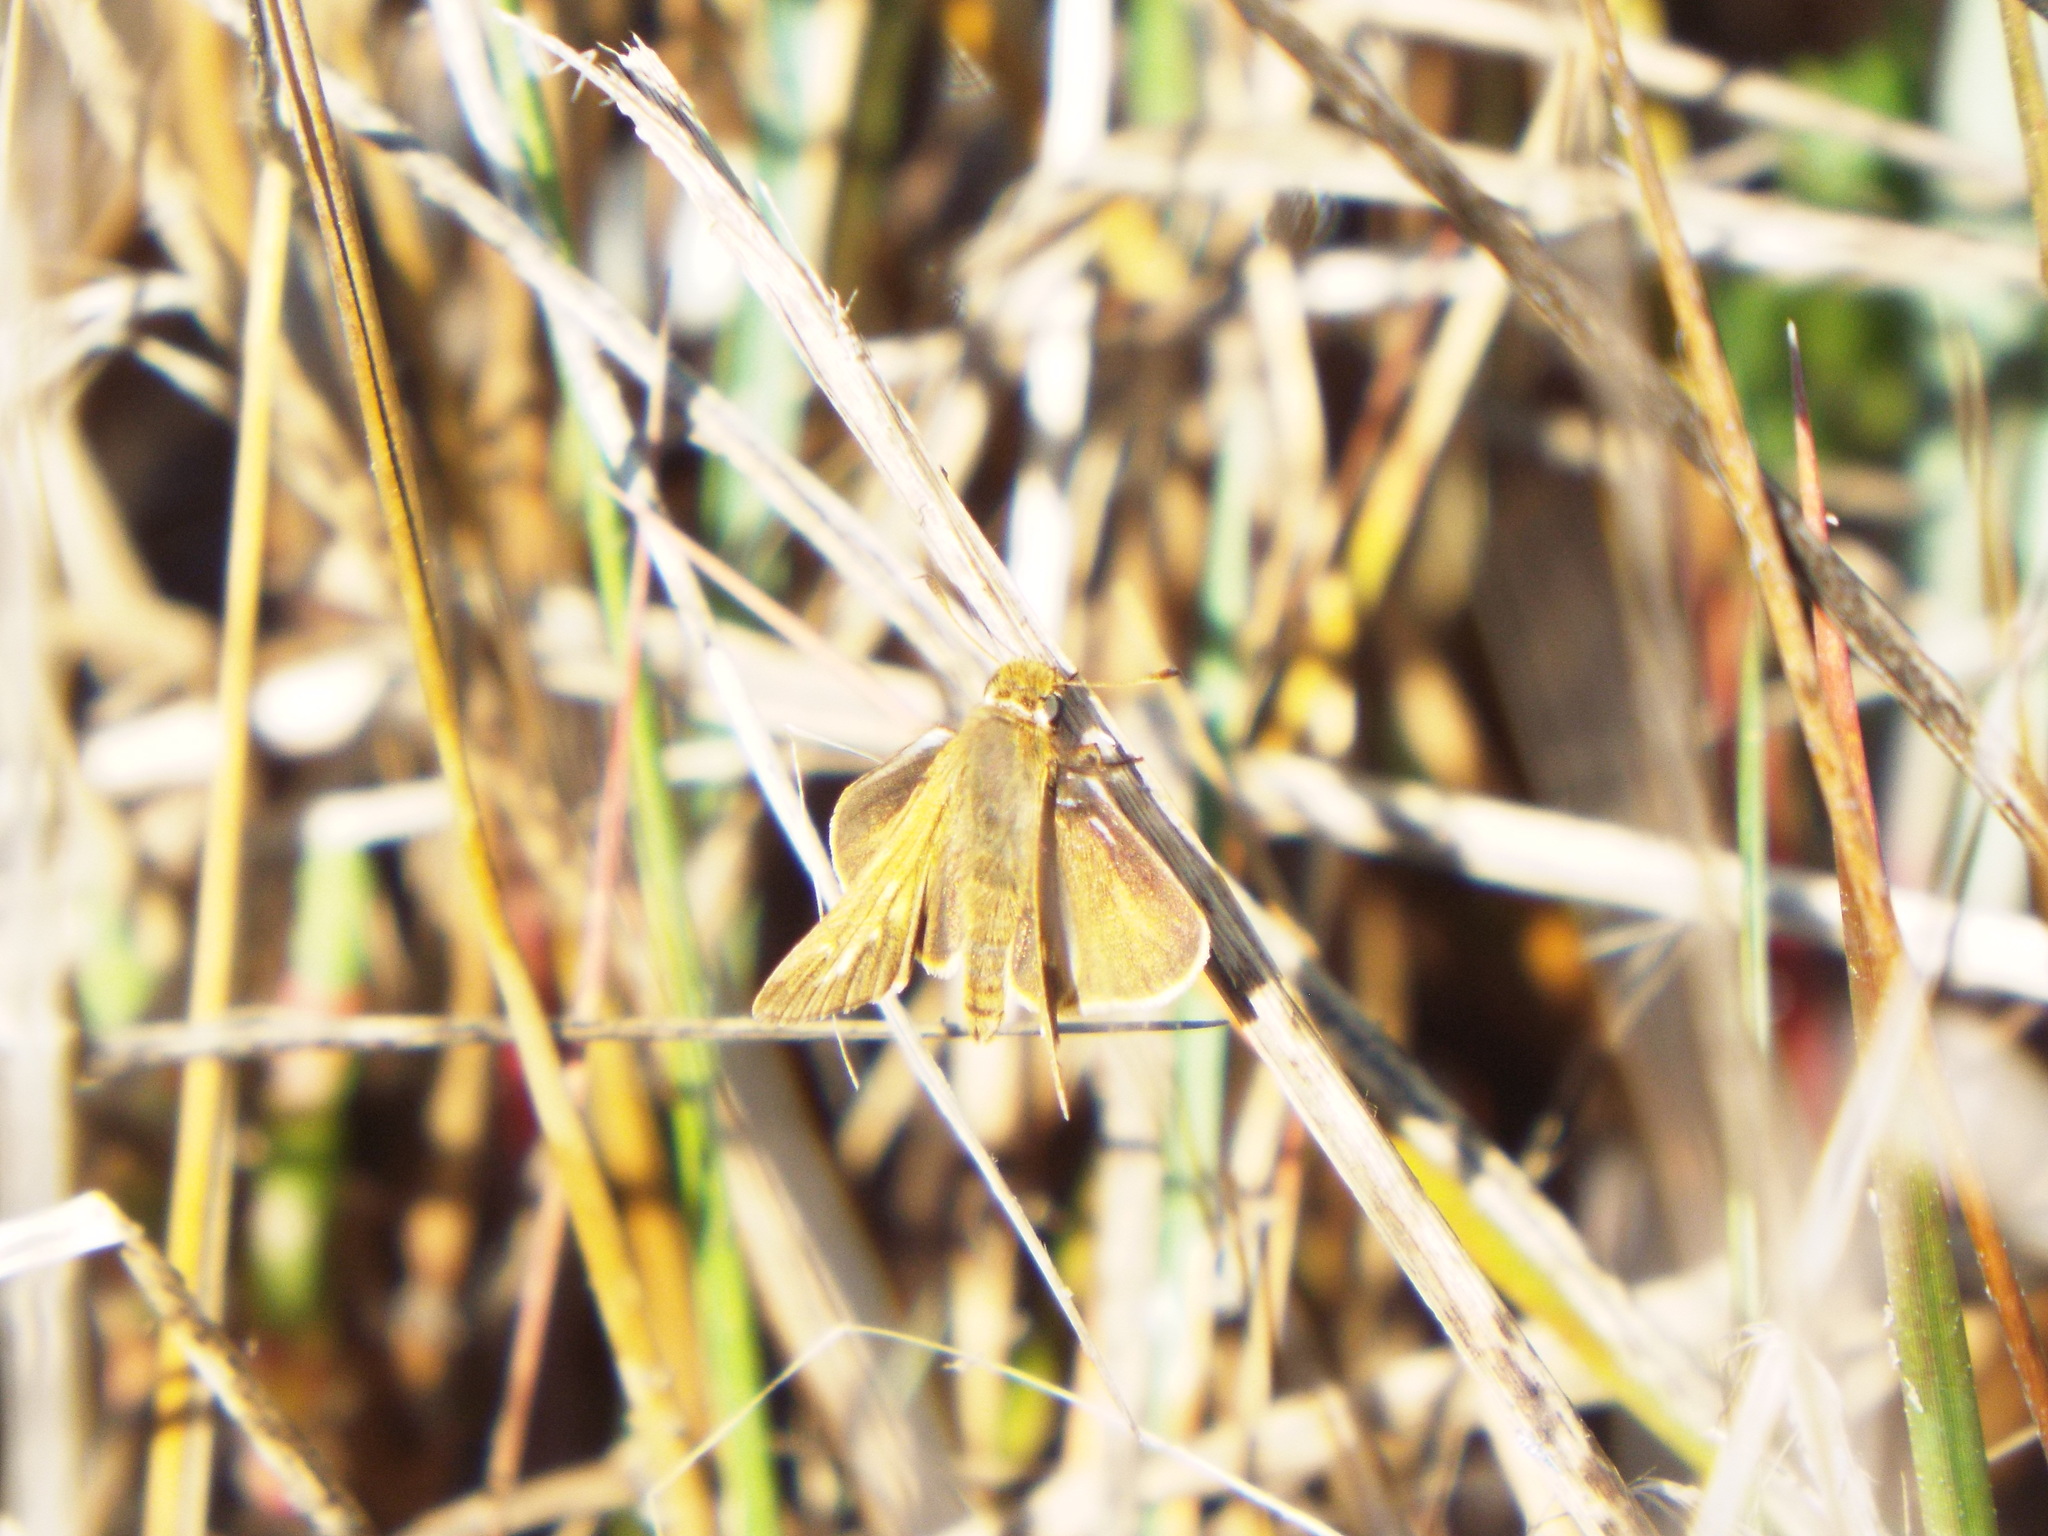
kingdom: Animalia
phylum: Arthropoda
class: Insecta
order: Lepidoptera
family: Hesperiidae
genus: Panoquina
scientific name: Panoquina panoquin
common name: Salt marsh skipper
